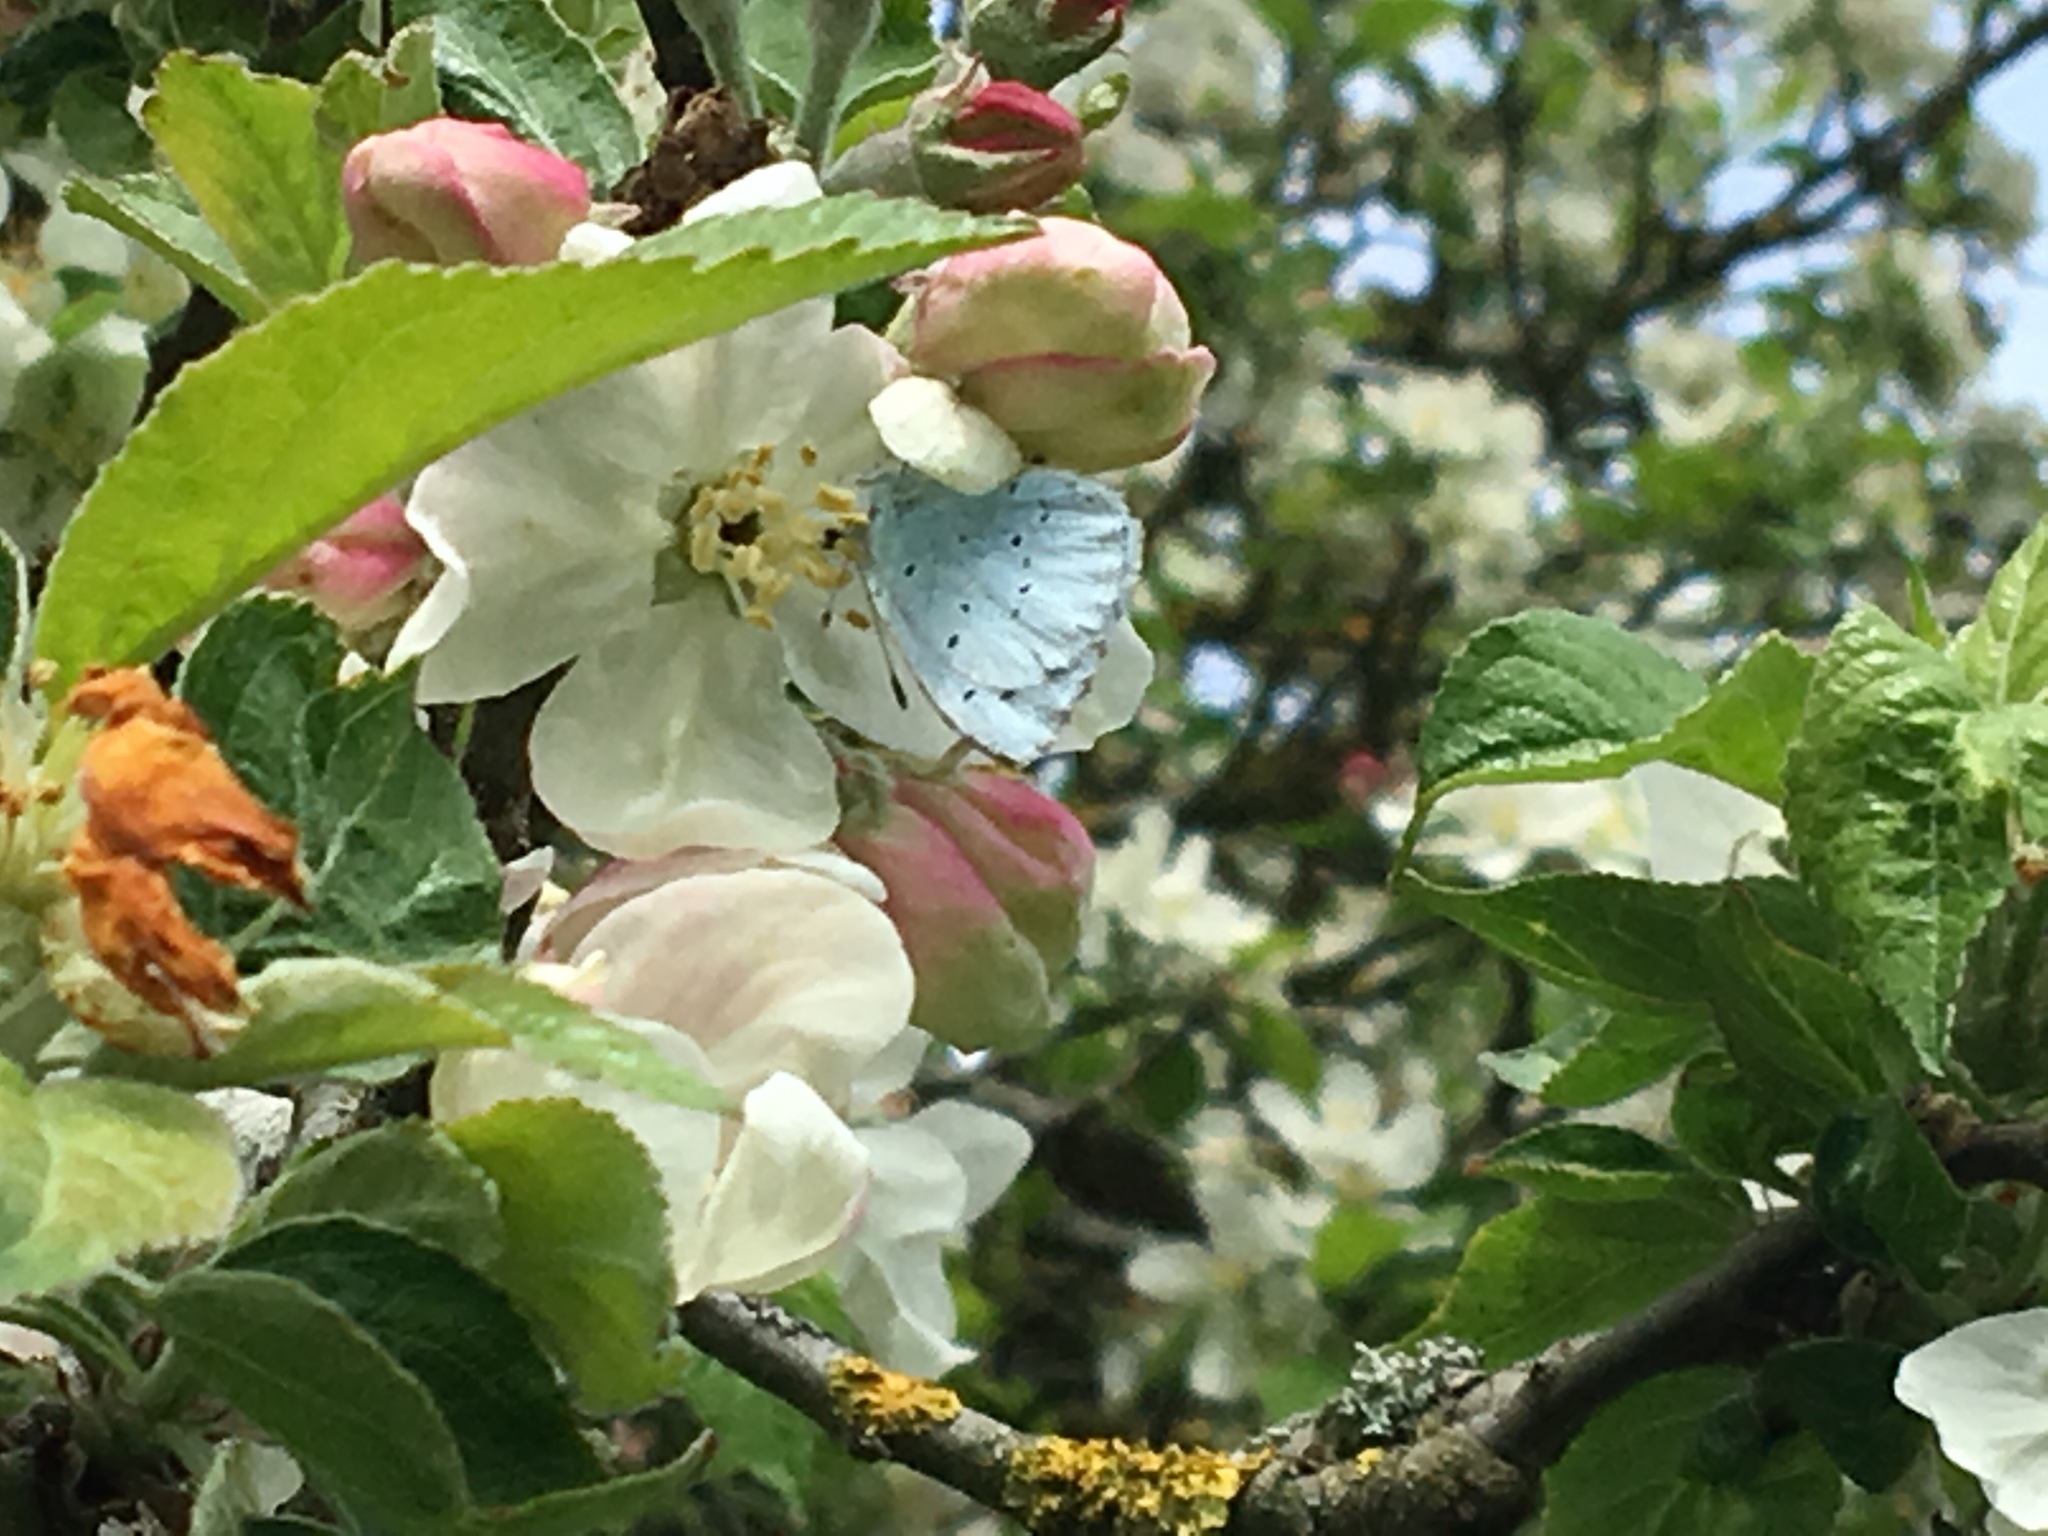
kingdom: Animalia
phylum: Arthropoda
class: Insecta
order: Lepidoptera
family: Lycaenidae
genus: Celastrina
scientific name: Celastrina argiolus
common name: Holly blue
